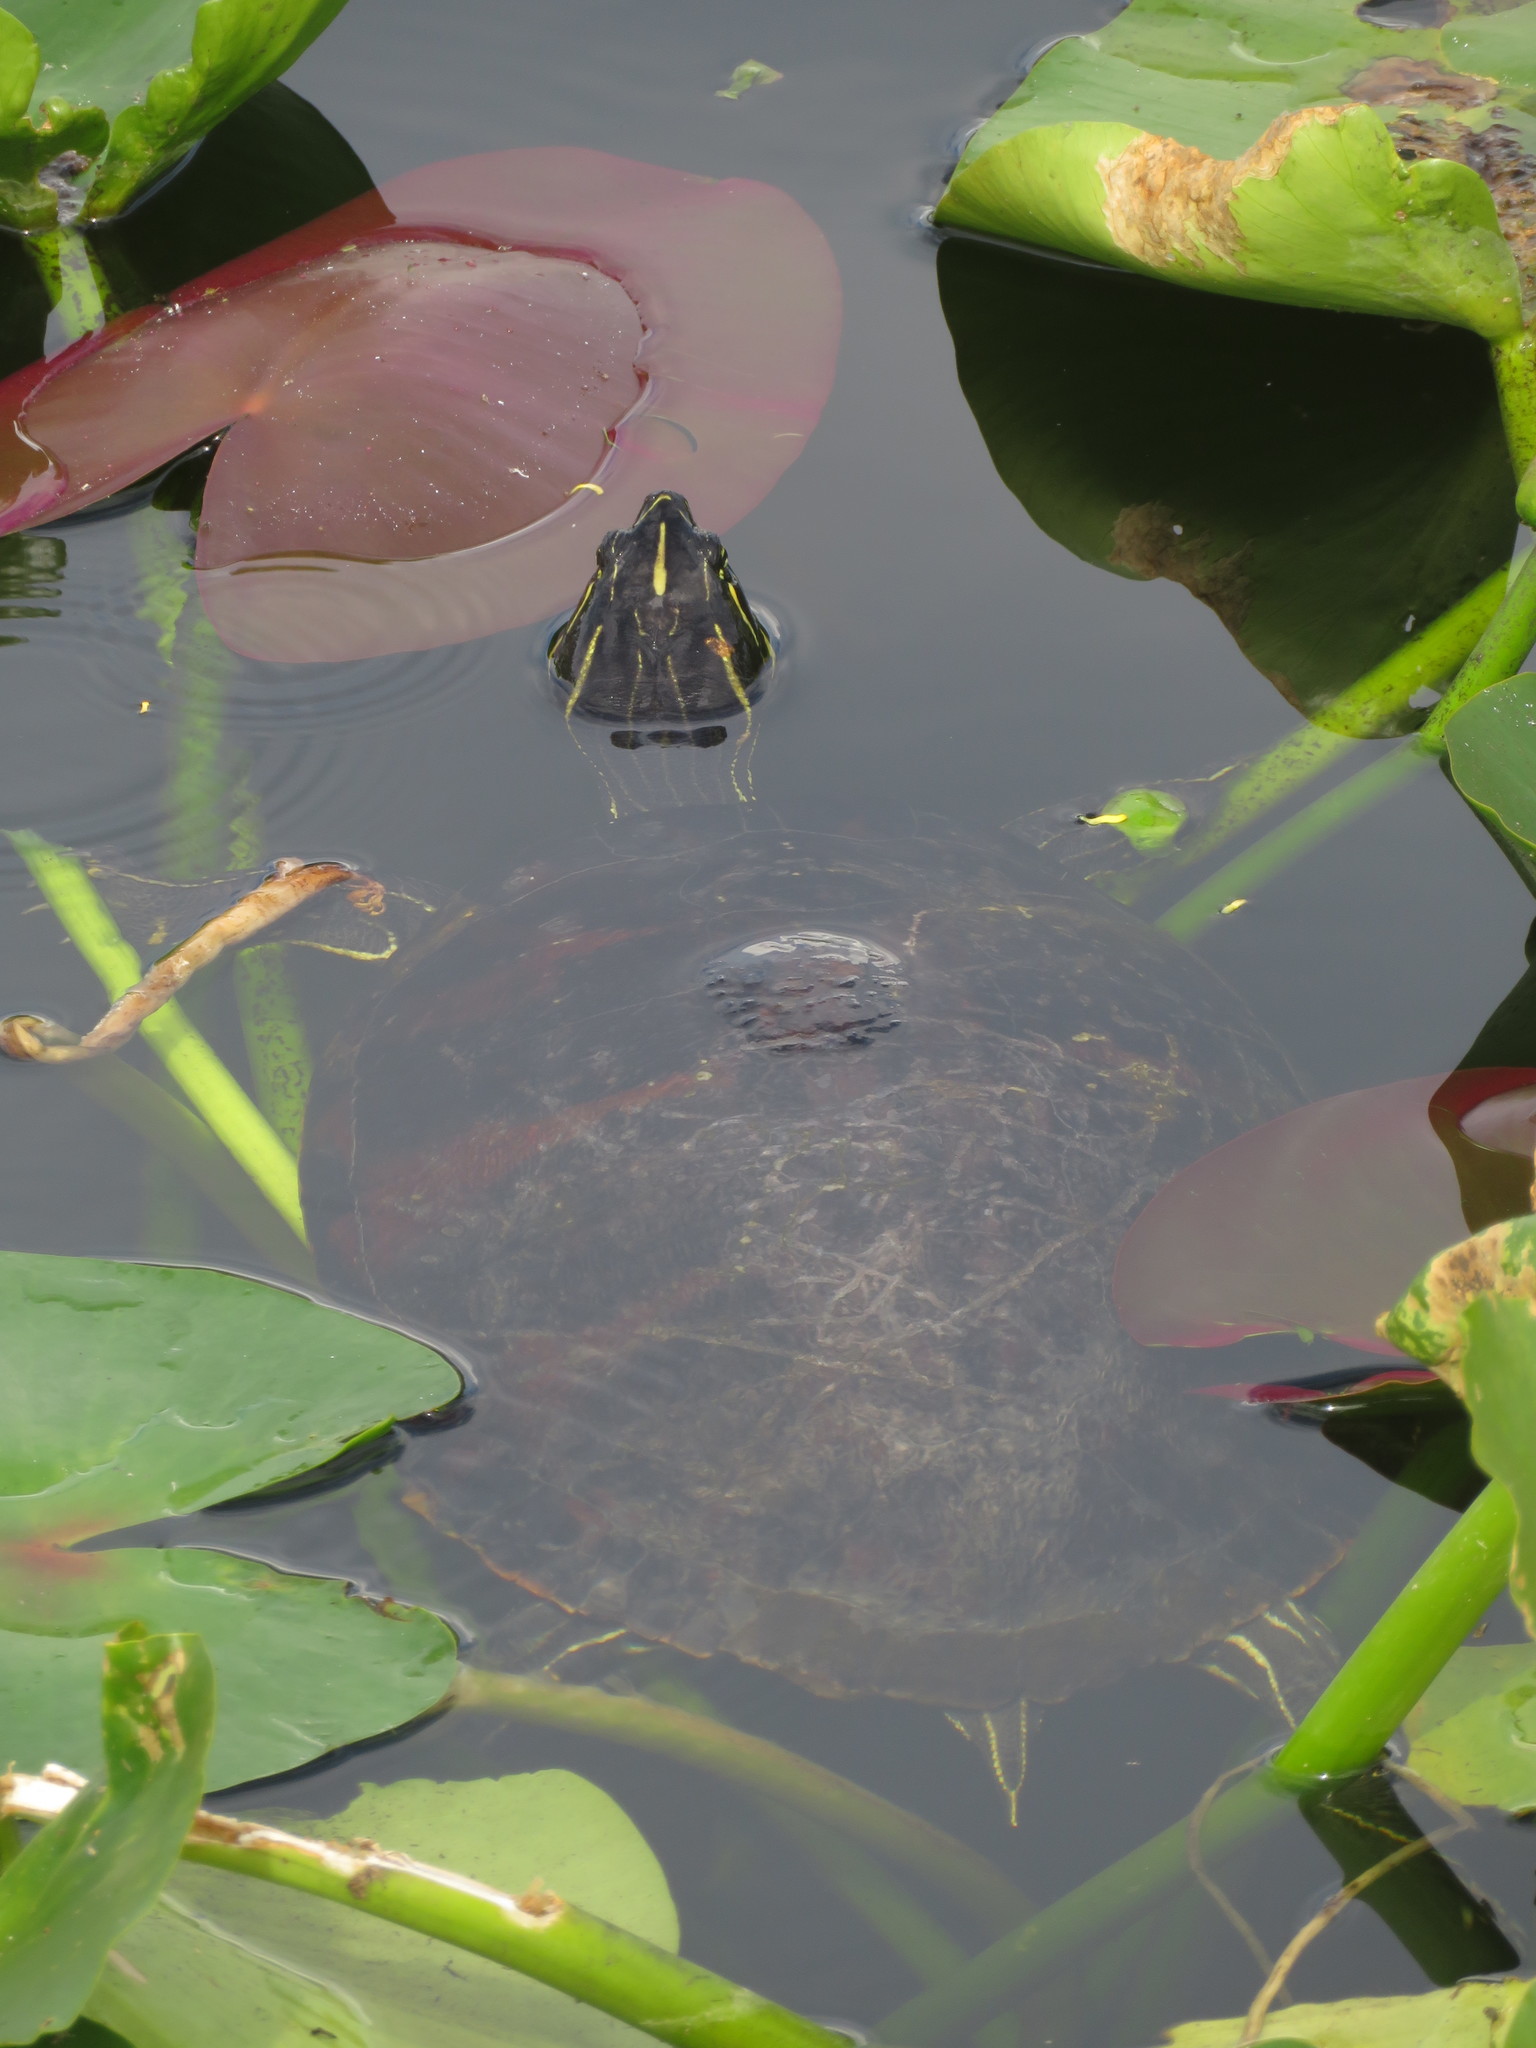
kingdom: Animalia
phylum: Chordata
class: Testudines
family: Emydidae
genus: Pseudemys
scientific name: Pseudemys nelsoni
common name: Florida red-bellied turtle
